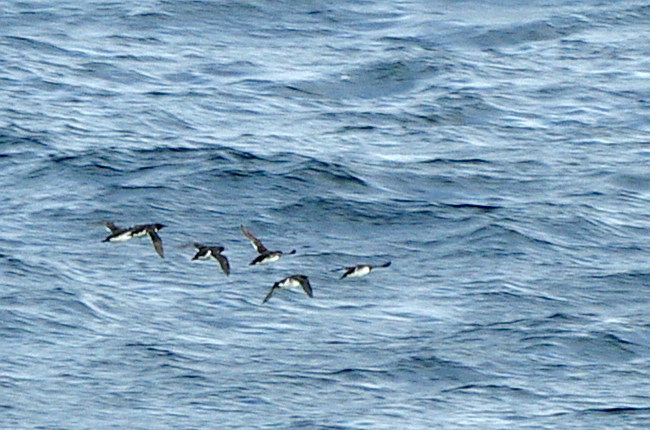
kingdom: Animalia
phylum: Chordata
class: Aves
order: Charadriiformes
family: Alcidae
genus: Uria
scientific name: Uria aalge
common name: Common murre
